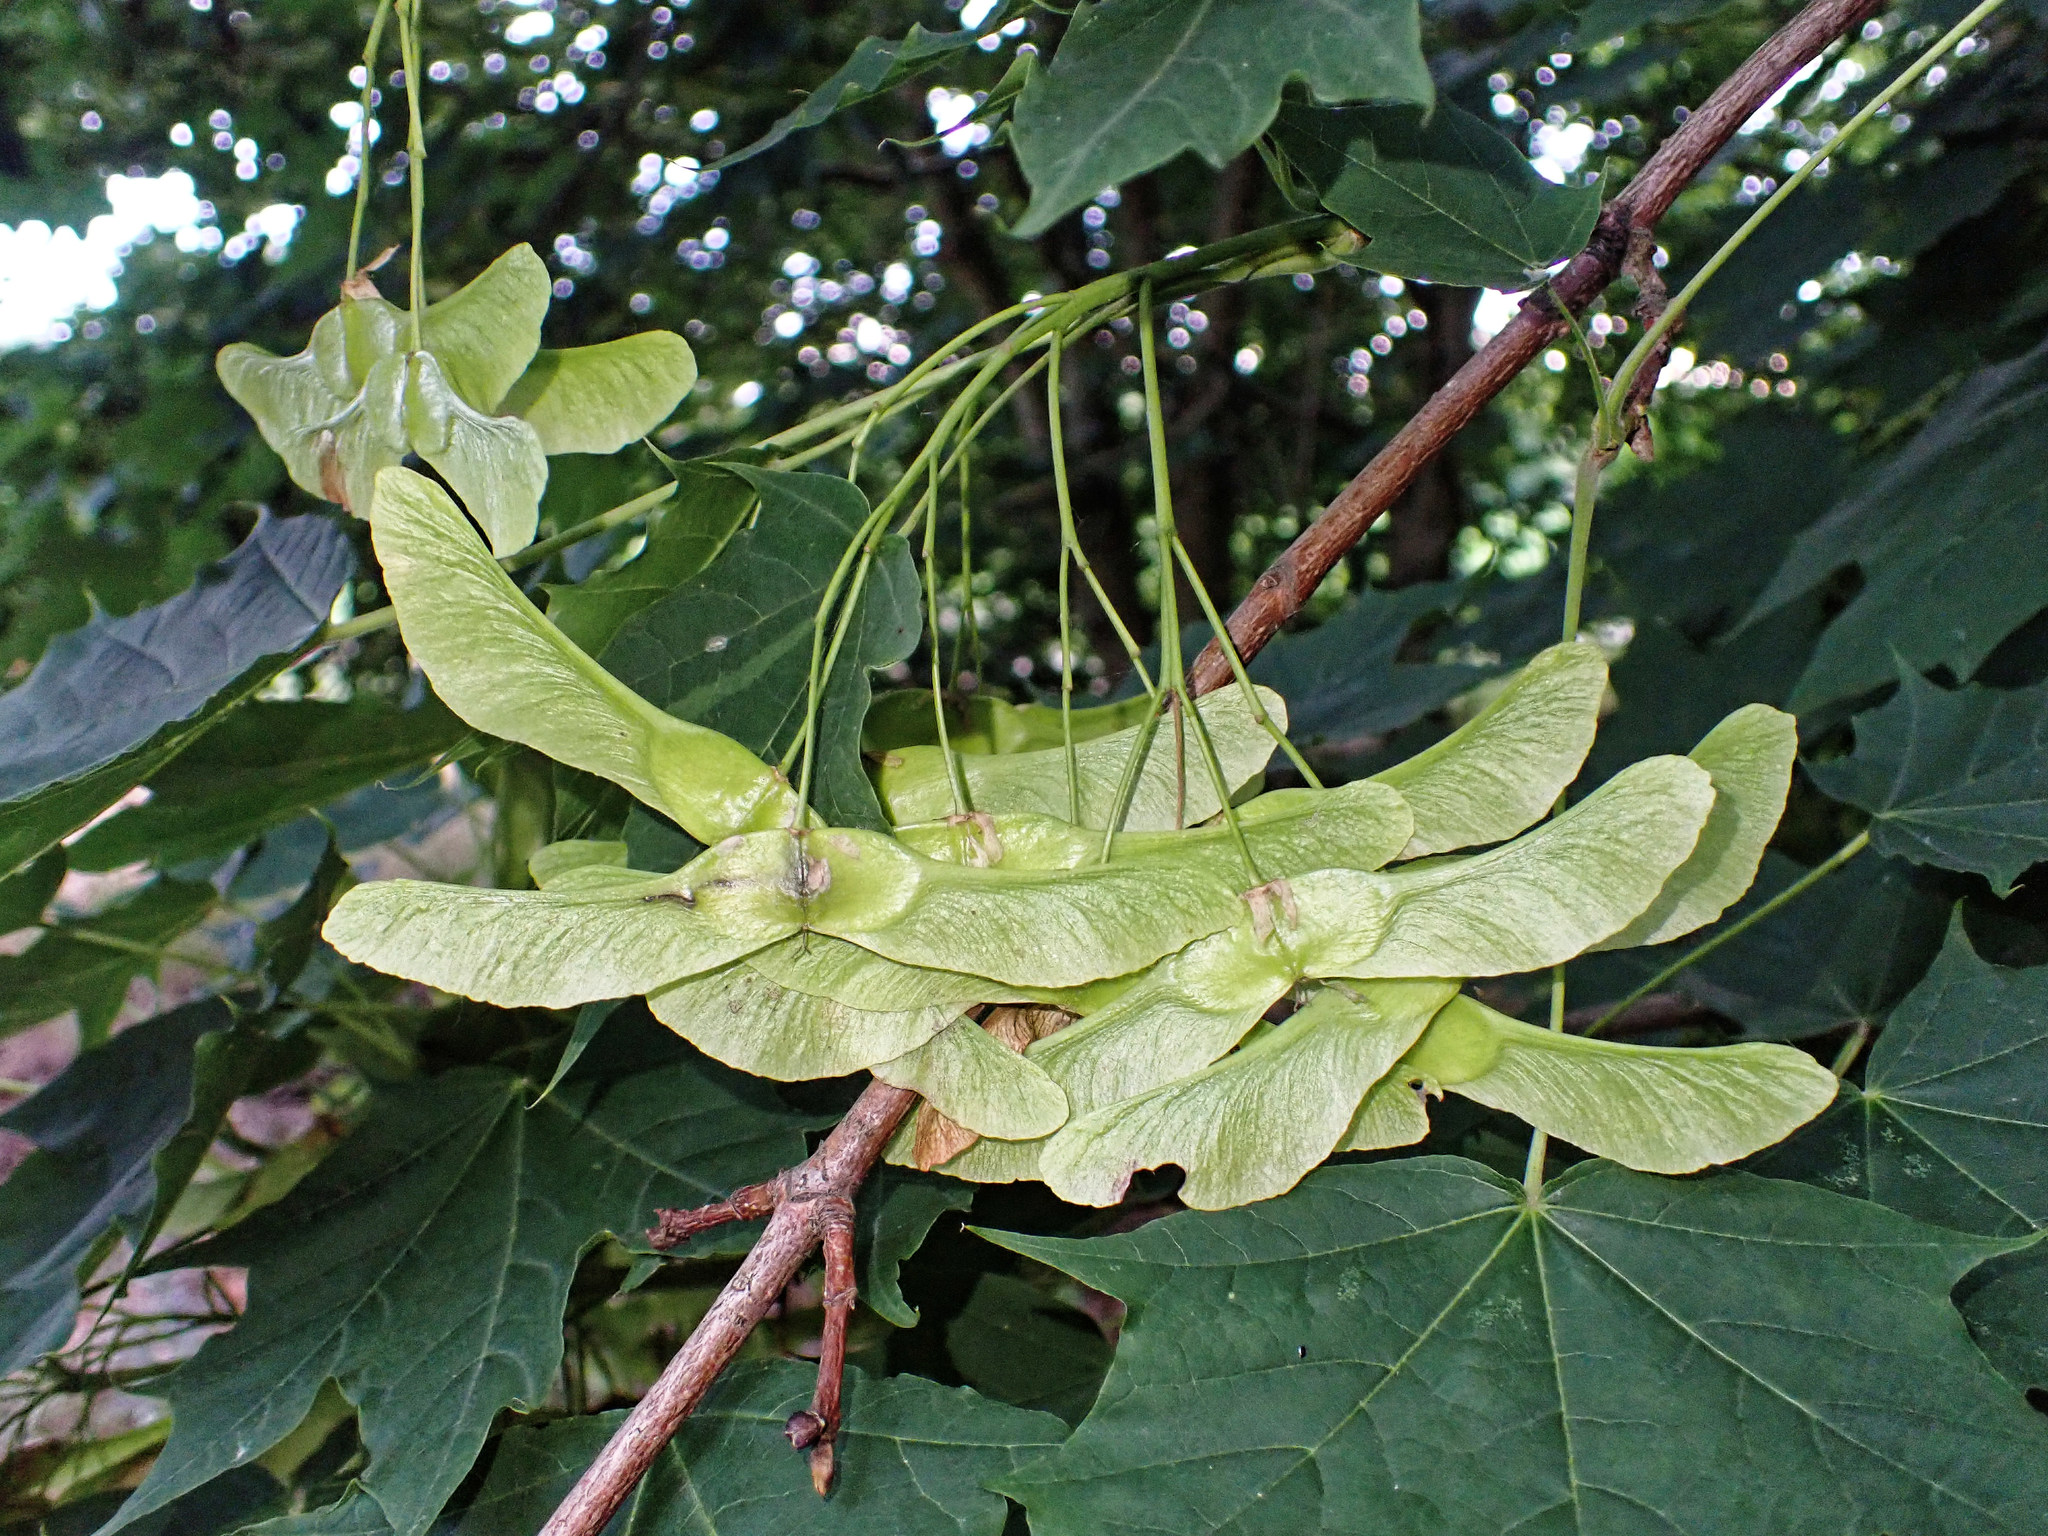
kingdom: Plantae
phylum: Tracheophyta
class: Magnoliopsida
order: Sapindales
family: Sapindaceae
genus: Acer
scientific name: Acer platanoides
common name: Norway maple
